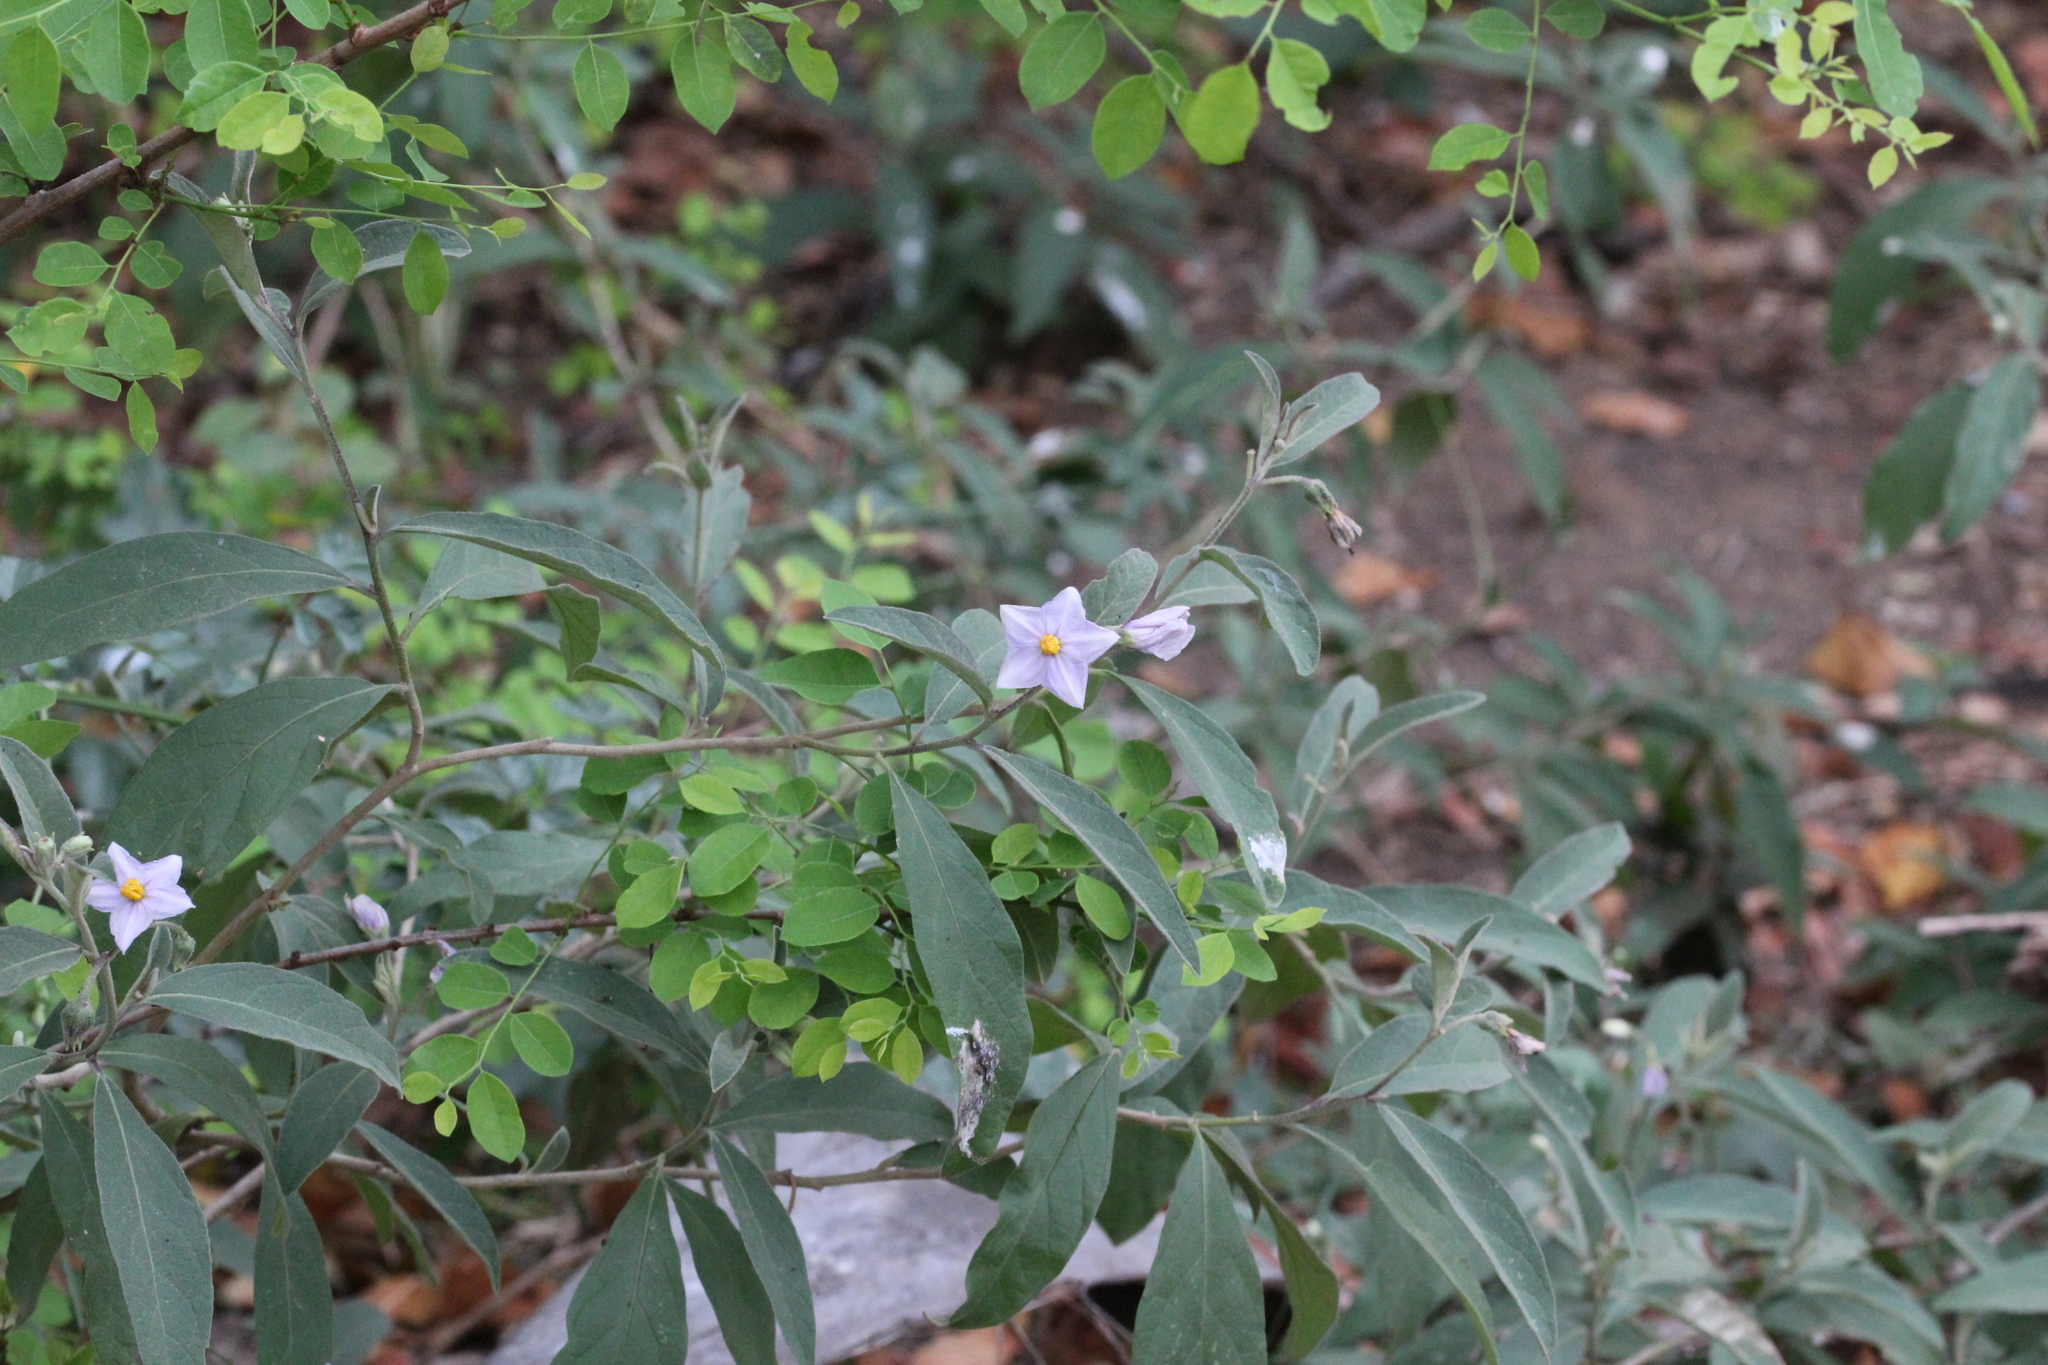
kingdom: Plantae
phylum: Tracheophyta
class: Magnoliopsida
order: Solanales
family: Solanaceae
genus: Solanum
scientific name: Solanum campylacanthum
